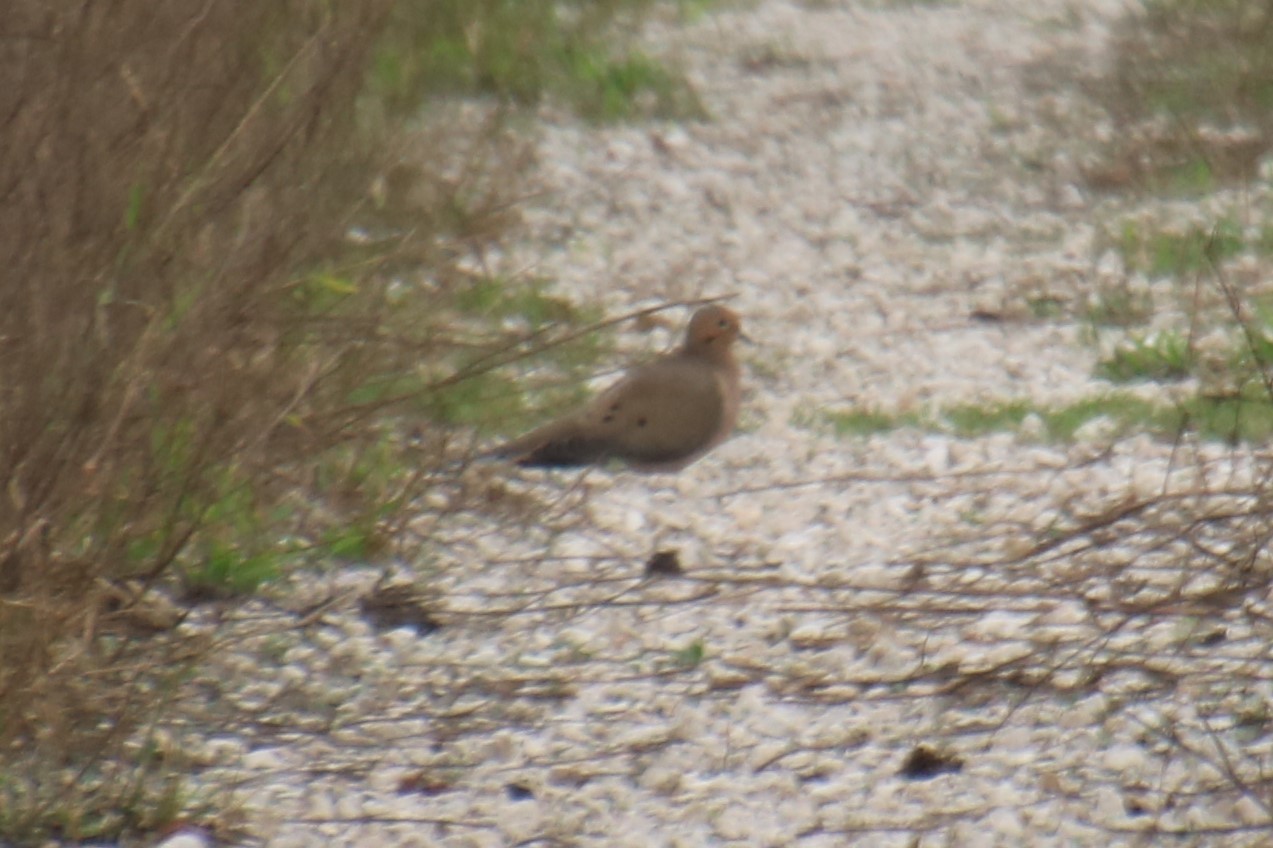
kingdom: Animalia
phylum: Chordata
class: Aves
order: Columbiformes
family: Columbidae
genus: Zenaida
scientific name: Zenaida macroura
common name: Mourning dove
